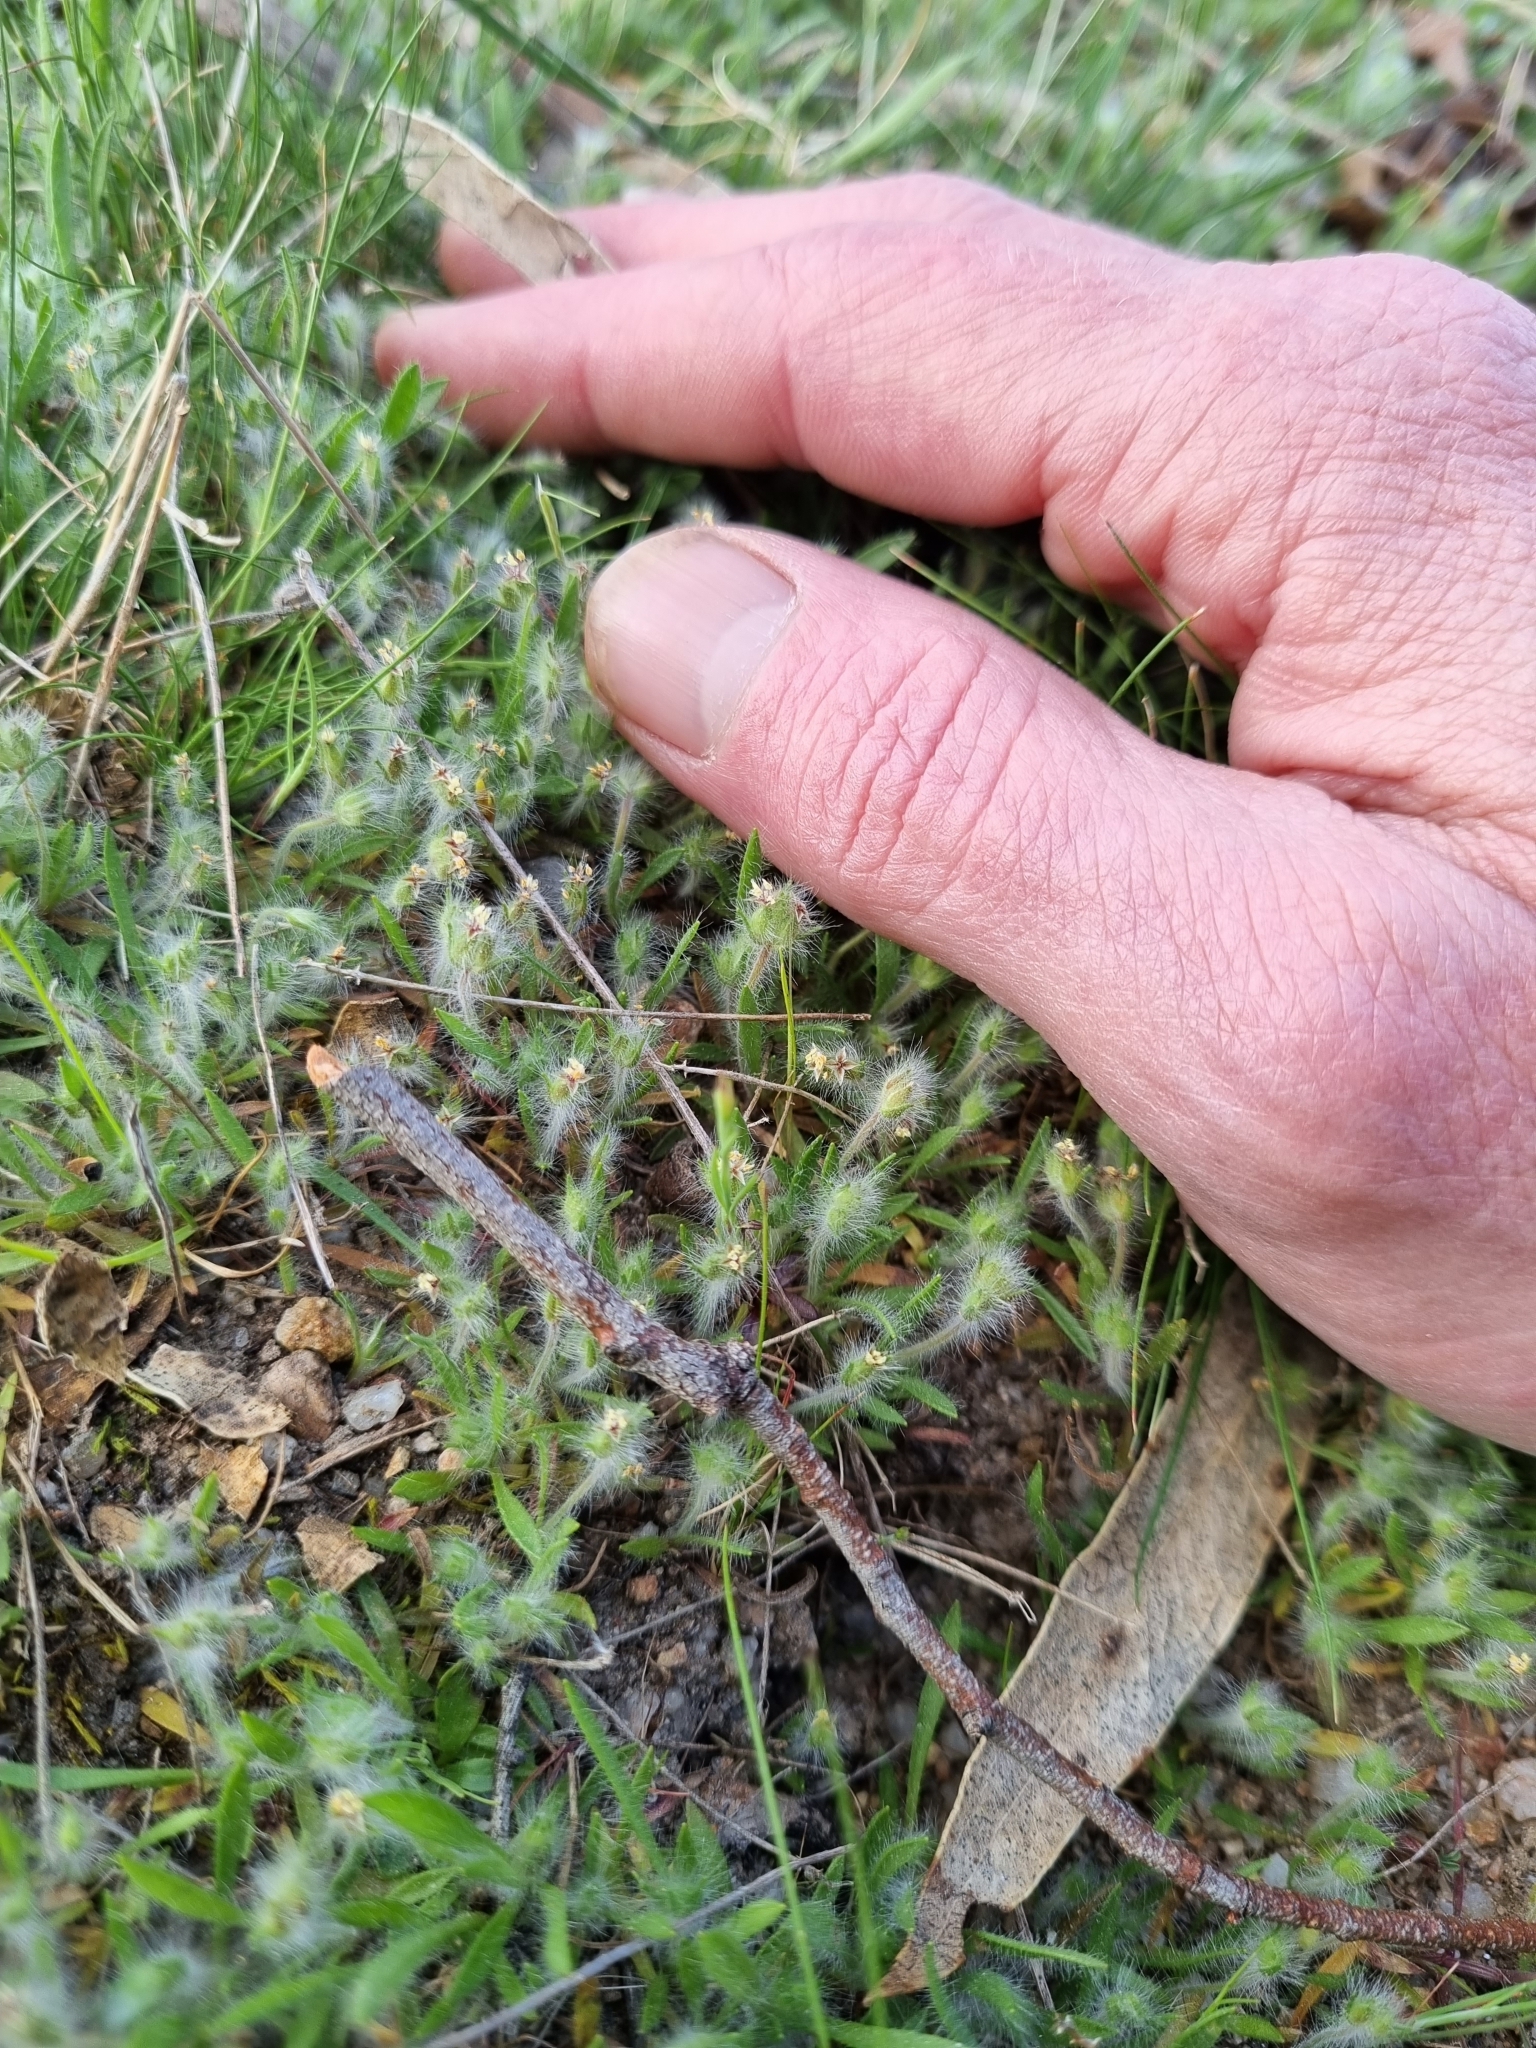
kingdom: Plantae
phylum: Tracheophyta
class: Liliopsida
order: Poales
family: Restionaceae
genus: Centrolepis
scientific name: Centrolepis strigosa
